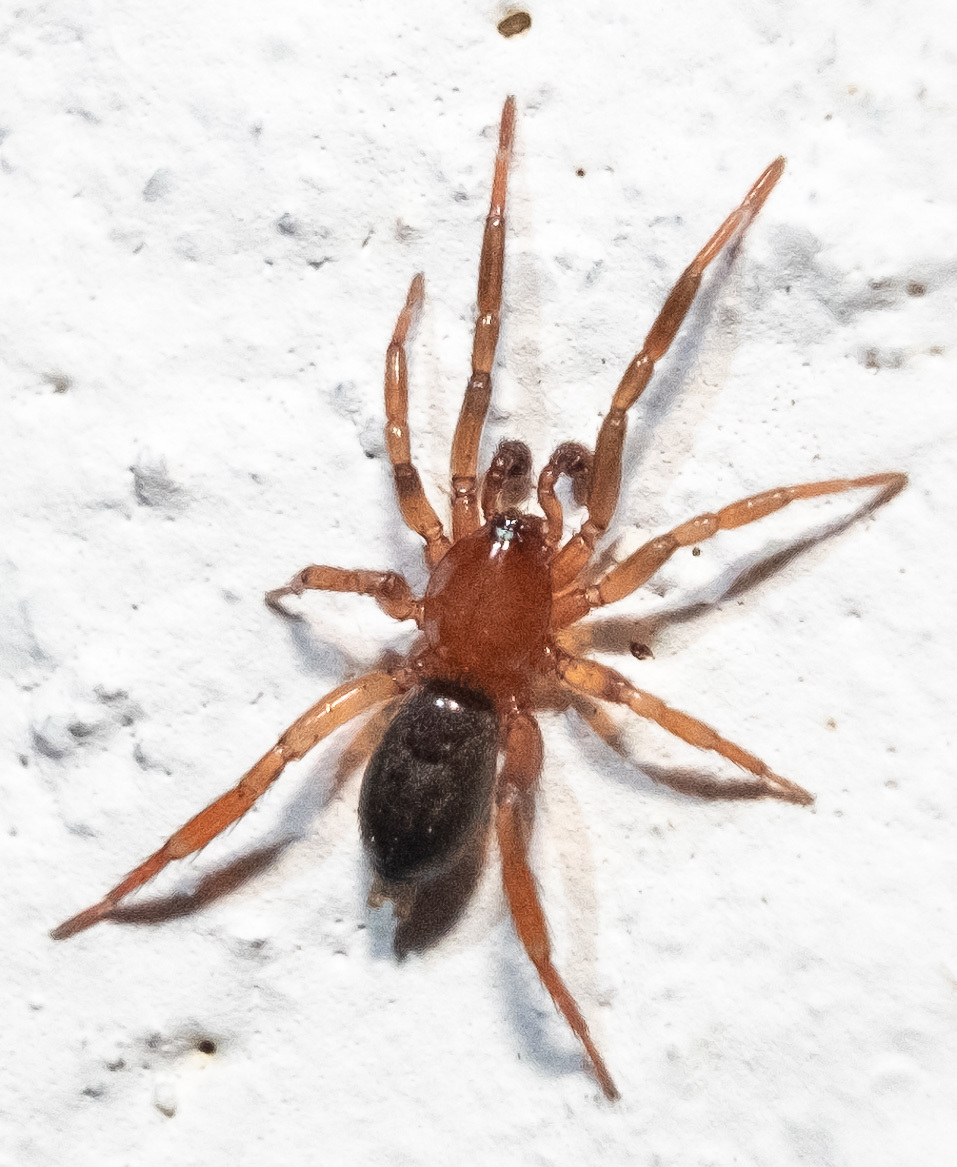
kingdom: Animalia
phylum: Arthropoda
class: Arachnida
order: Araneae
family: Gnaphosidae
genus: Drassyllus
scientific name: Drassyllus
